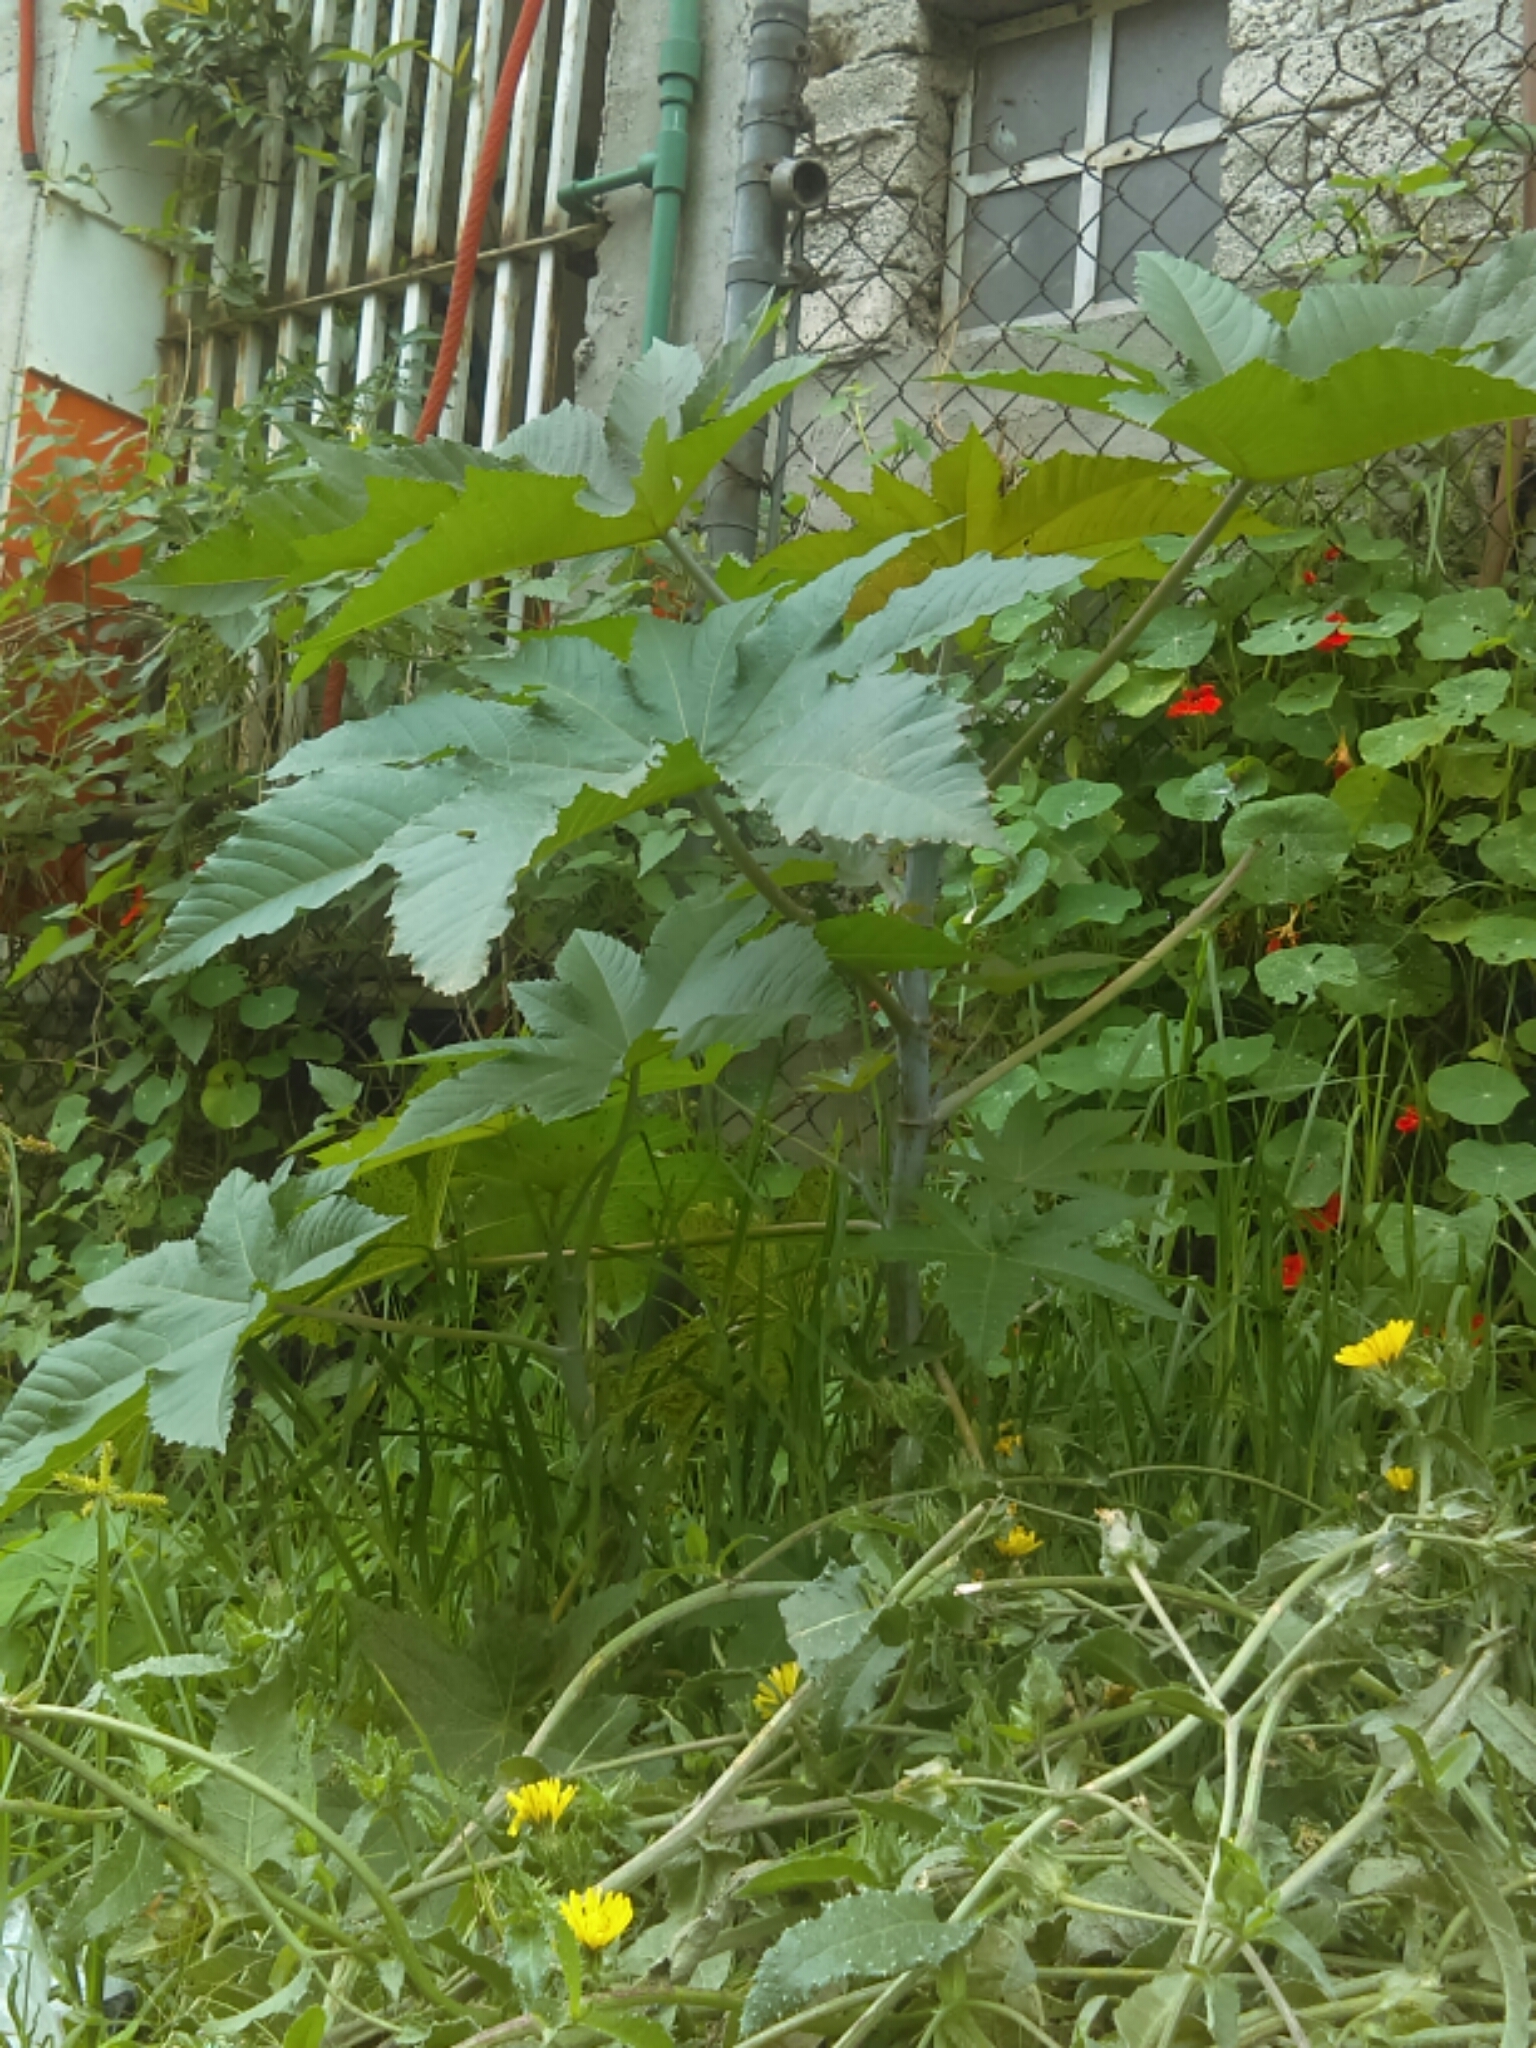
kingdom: Plantae
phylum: Tracheophyta
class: Magnoliopsida
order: Malpighiales
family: Euphorbiaceae
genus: Ricinus
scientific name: Ricinus communis
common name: Castor-oil-plant
